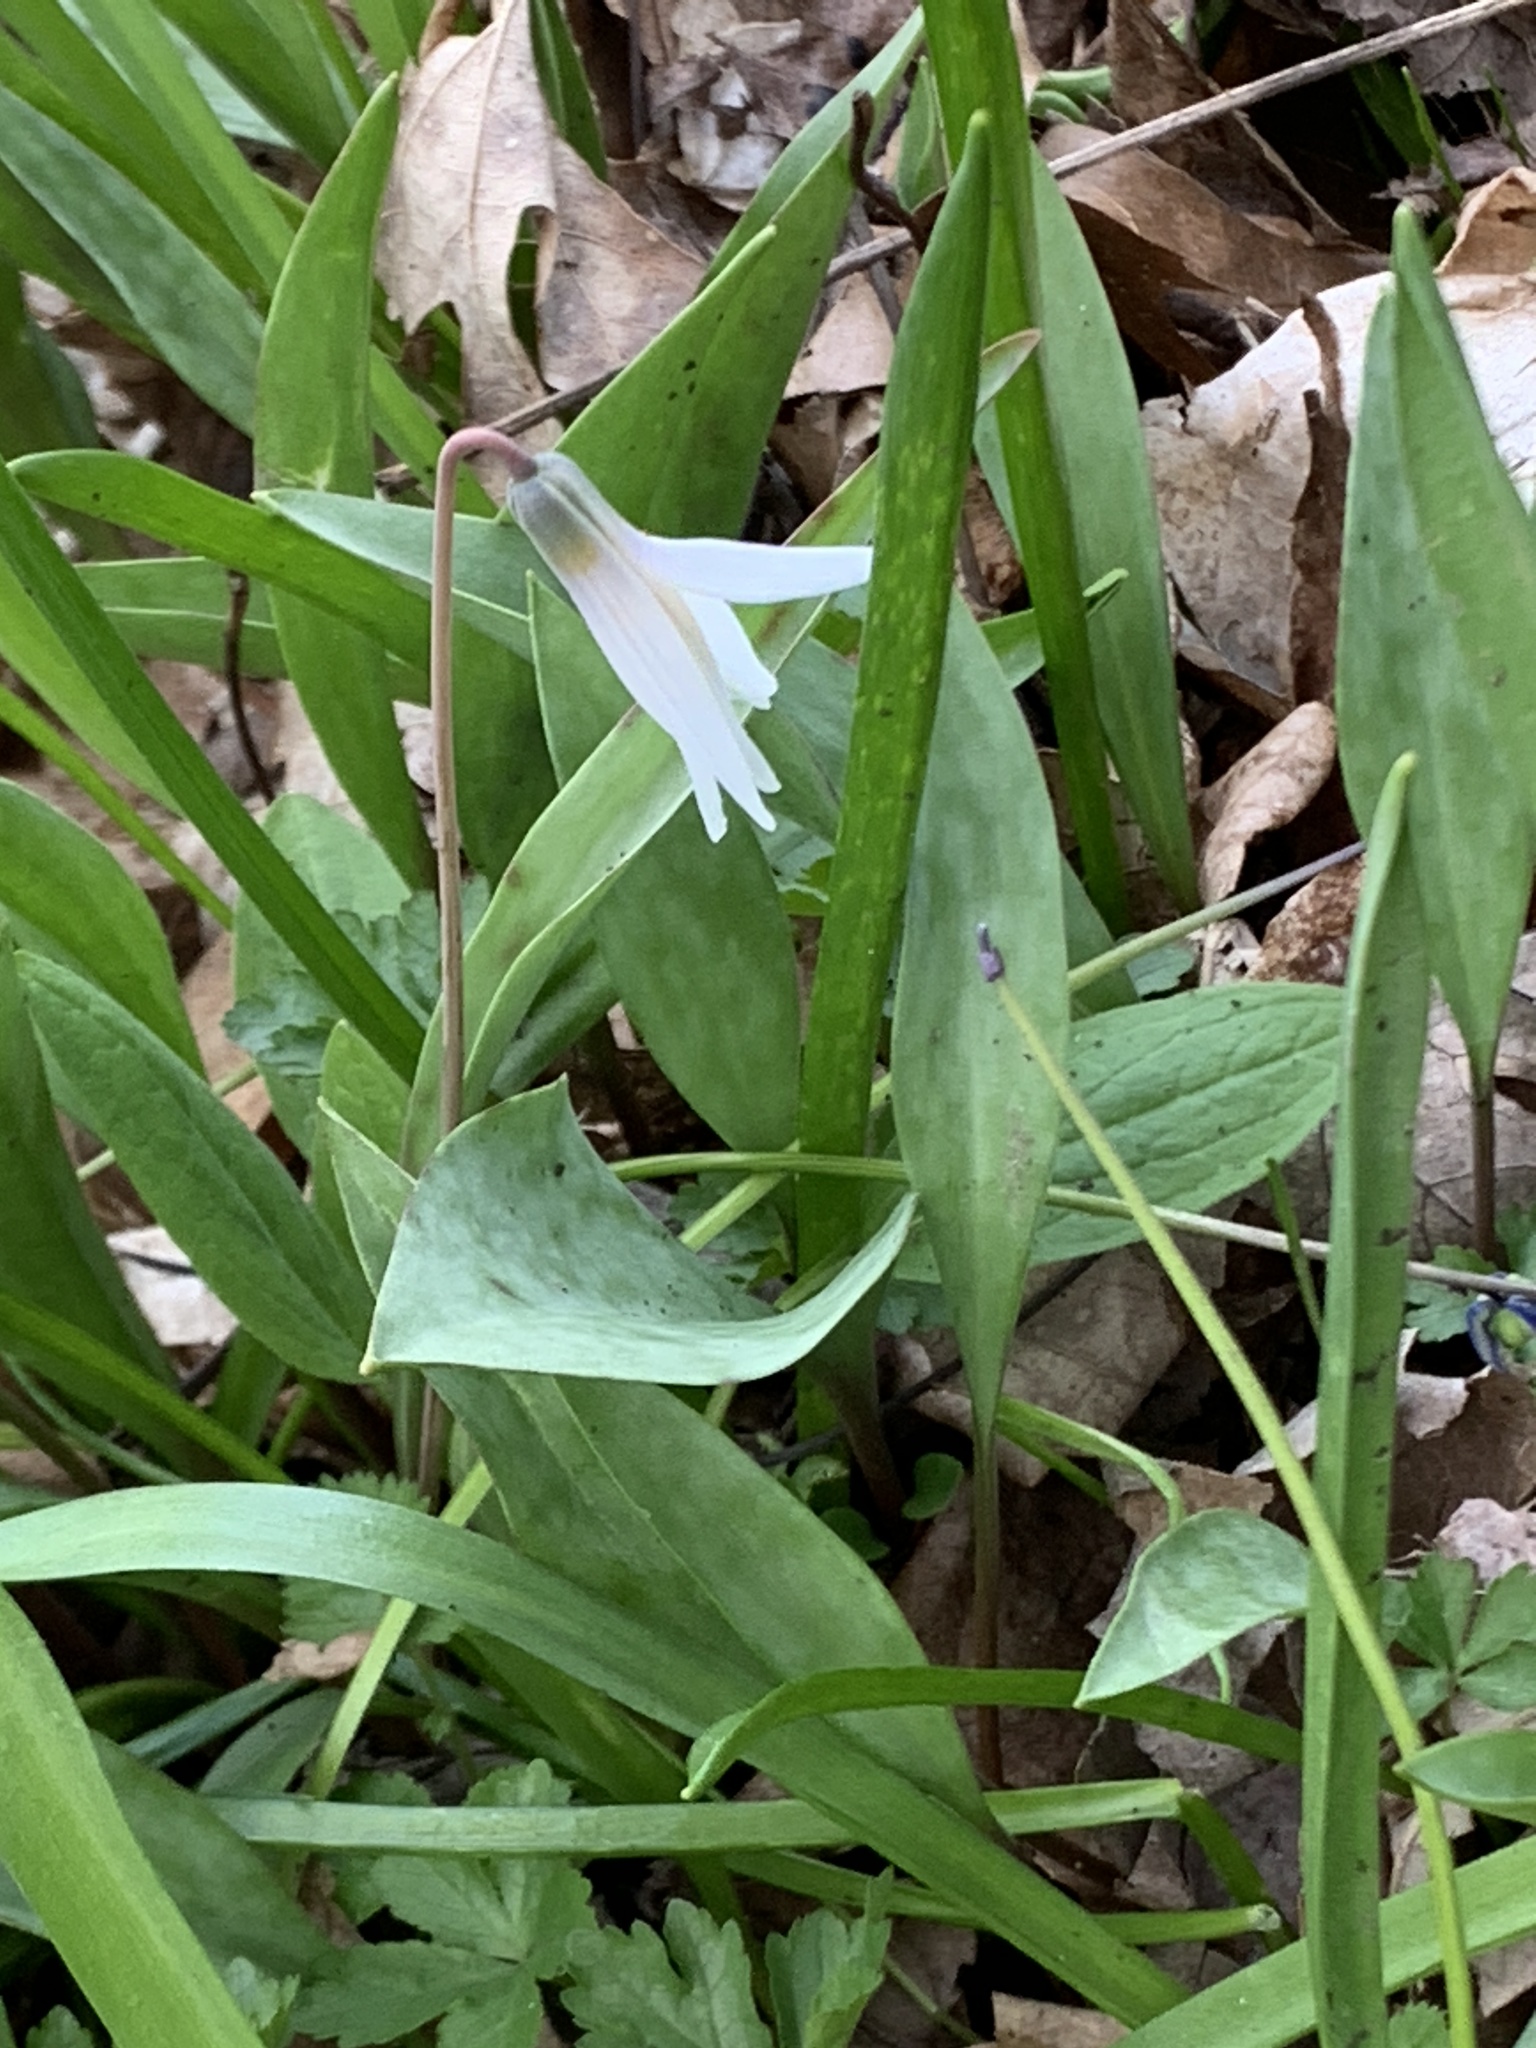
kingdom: Plantae
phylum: Tracheophyta
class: Liliopsida
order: Liliales
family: Liliaceae
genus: Erythronium
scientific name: Erythronium albidum
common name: White trout-lily
